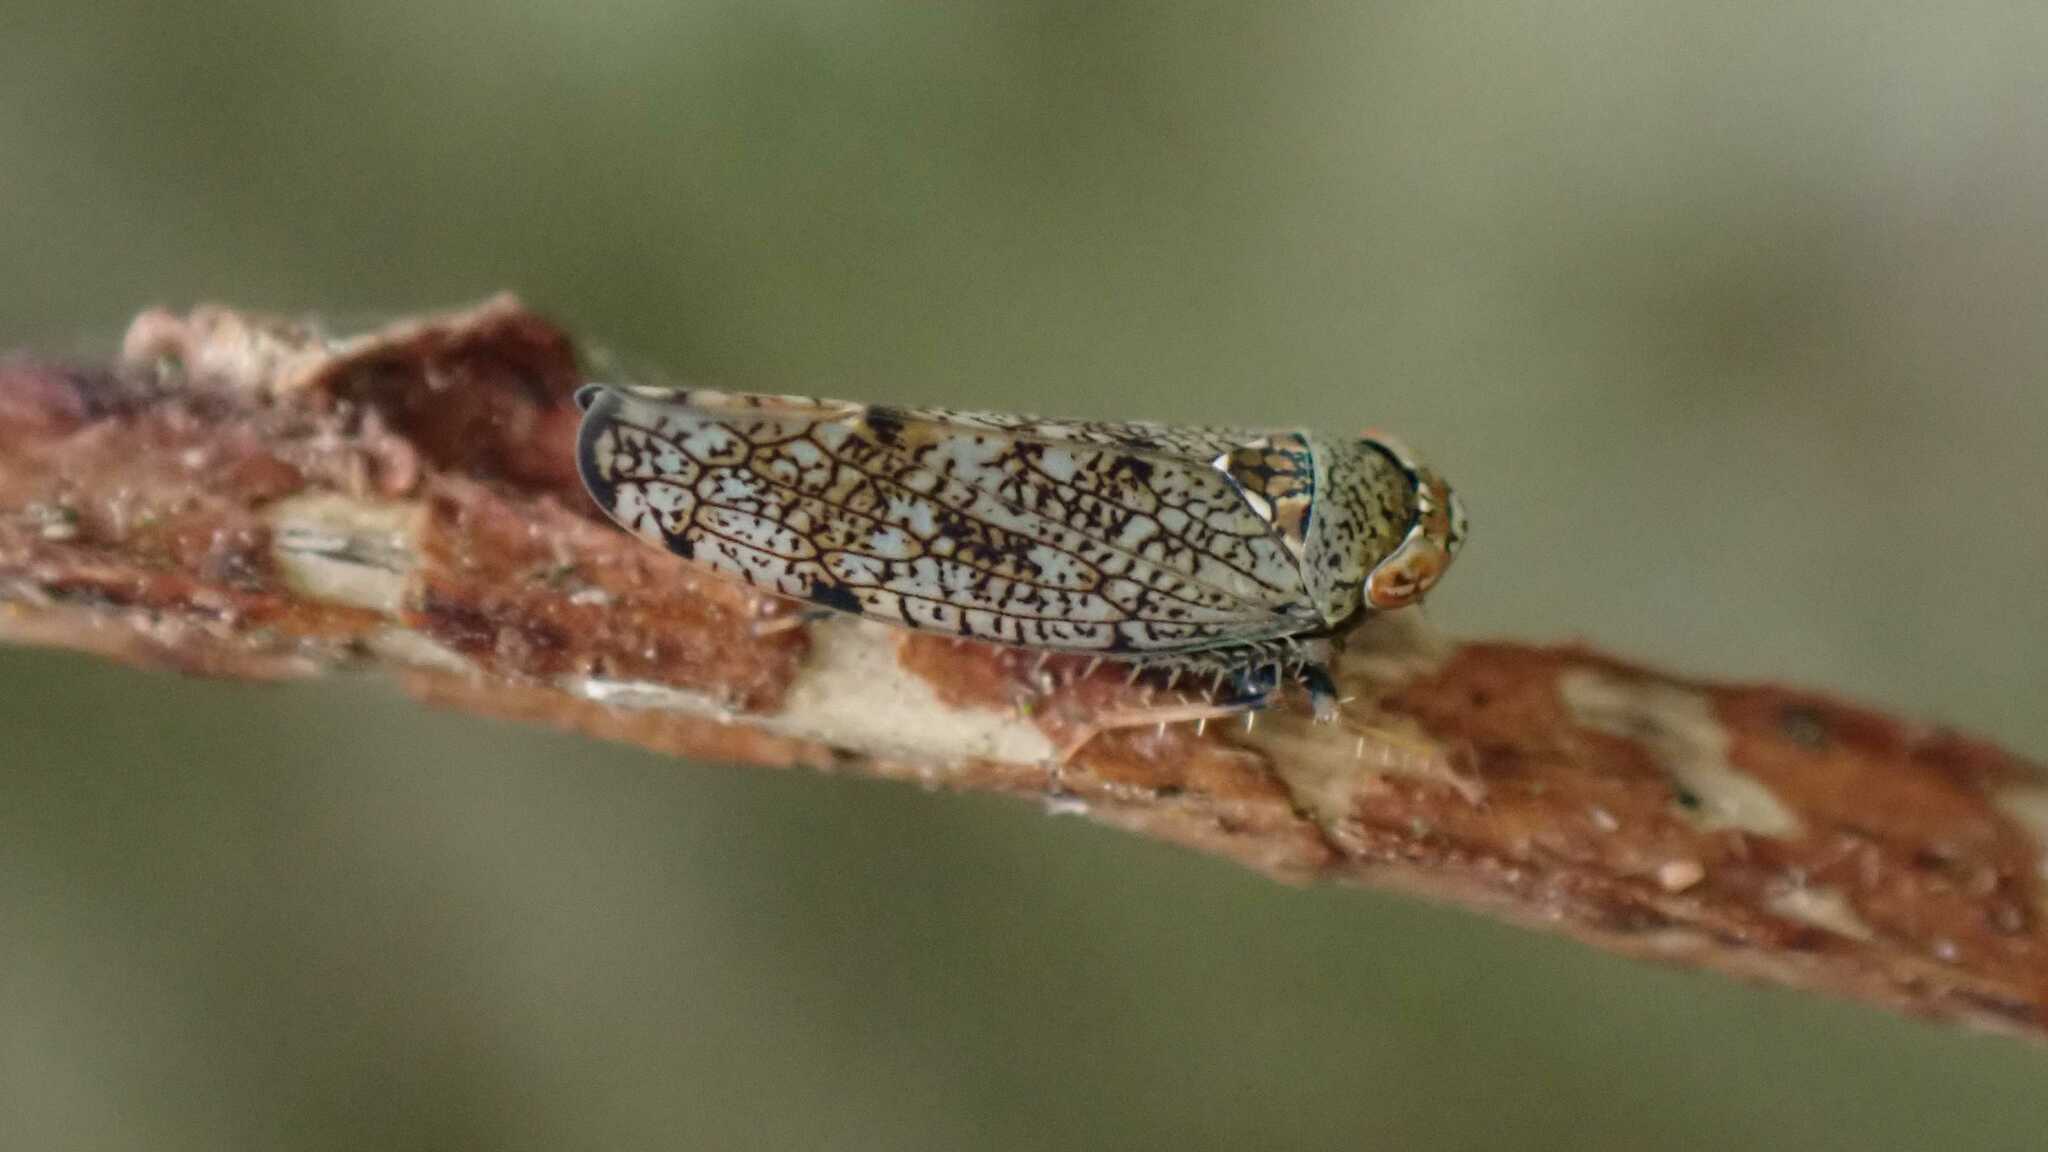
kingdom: Animalia
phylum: Arthropoda
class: Insecta
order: Hemiptera
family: Cicadellidae
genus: Orientus
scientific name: Orientus ishidae
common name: Japanese leafhopper
